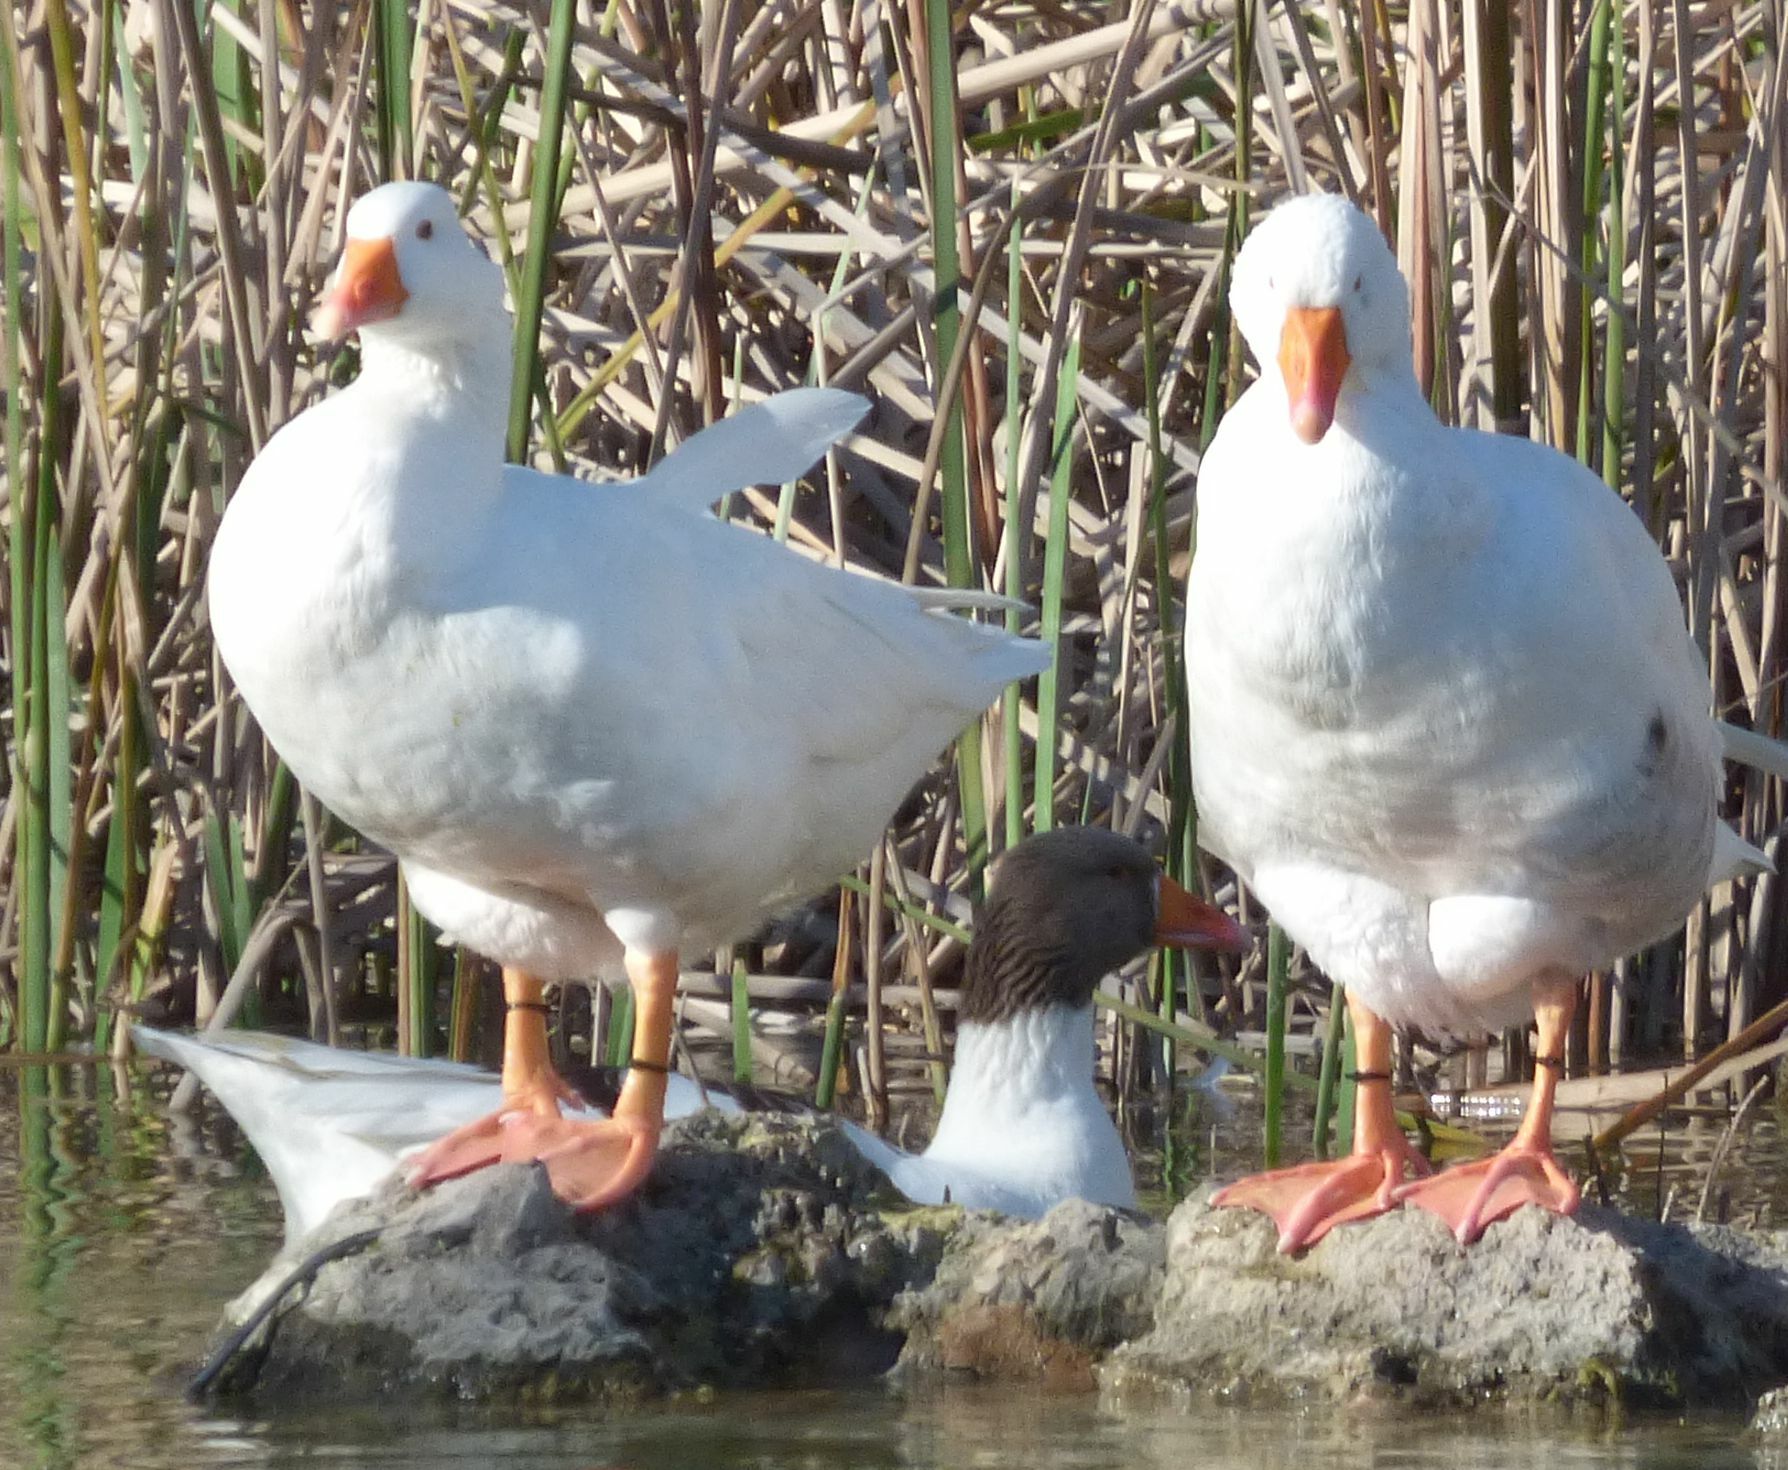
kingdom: Animalia
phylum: Chordata
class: Aves
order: Anseriformes
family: Anatidae
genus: Anser
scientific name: Anser anser
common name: Greylag goose
